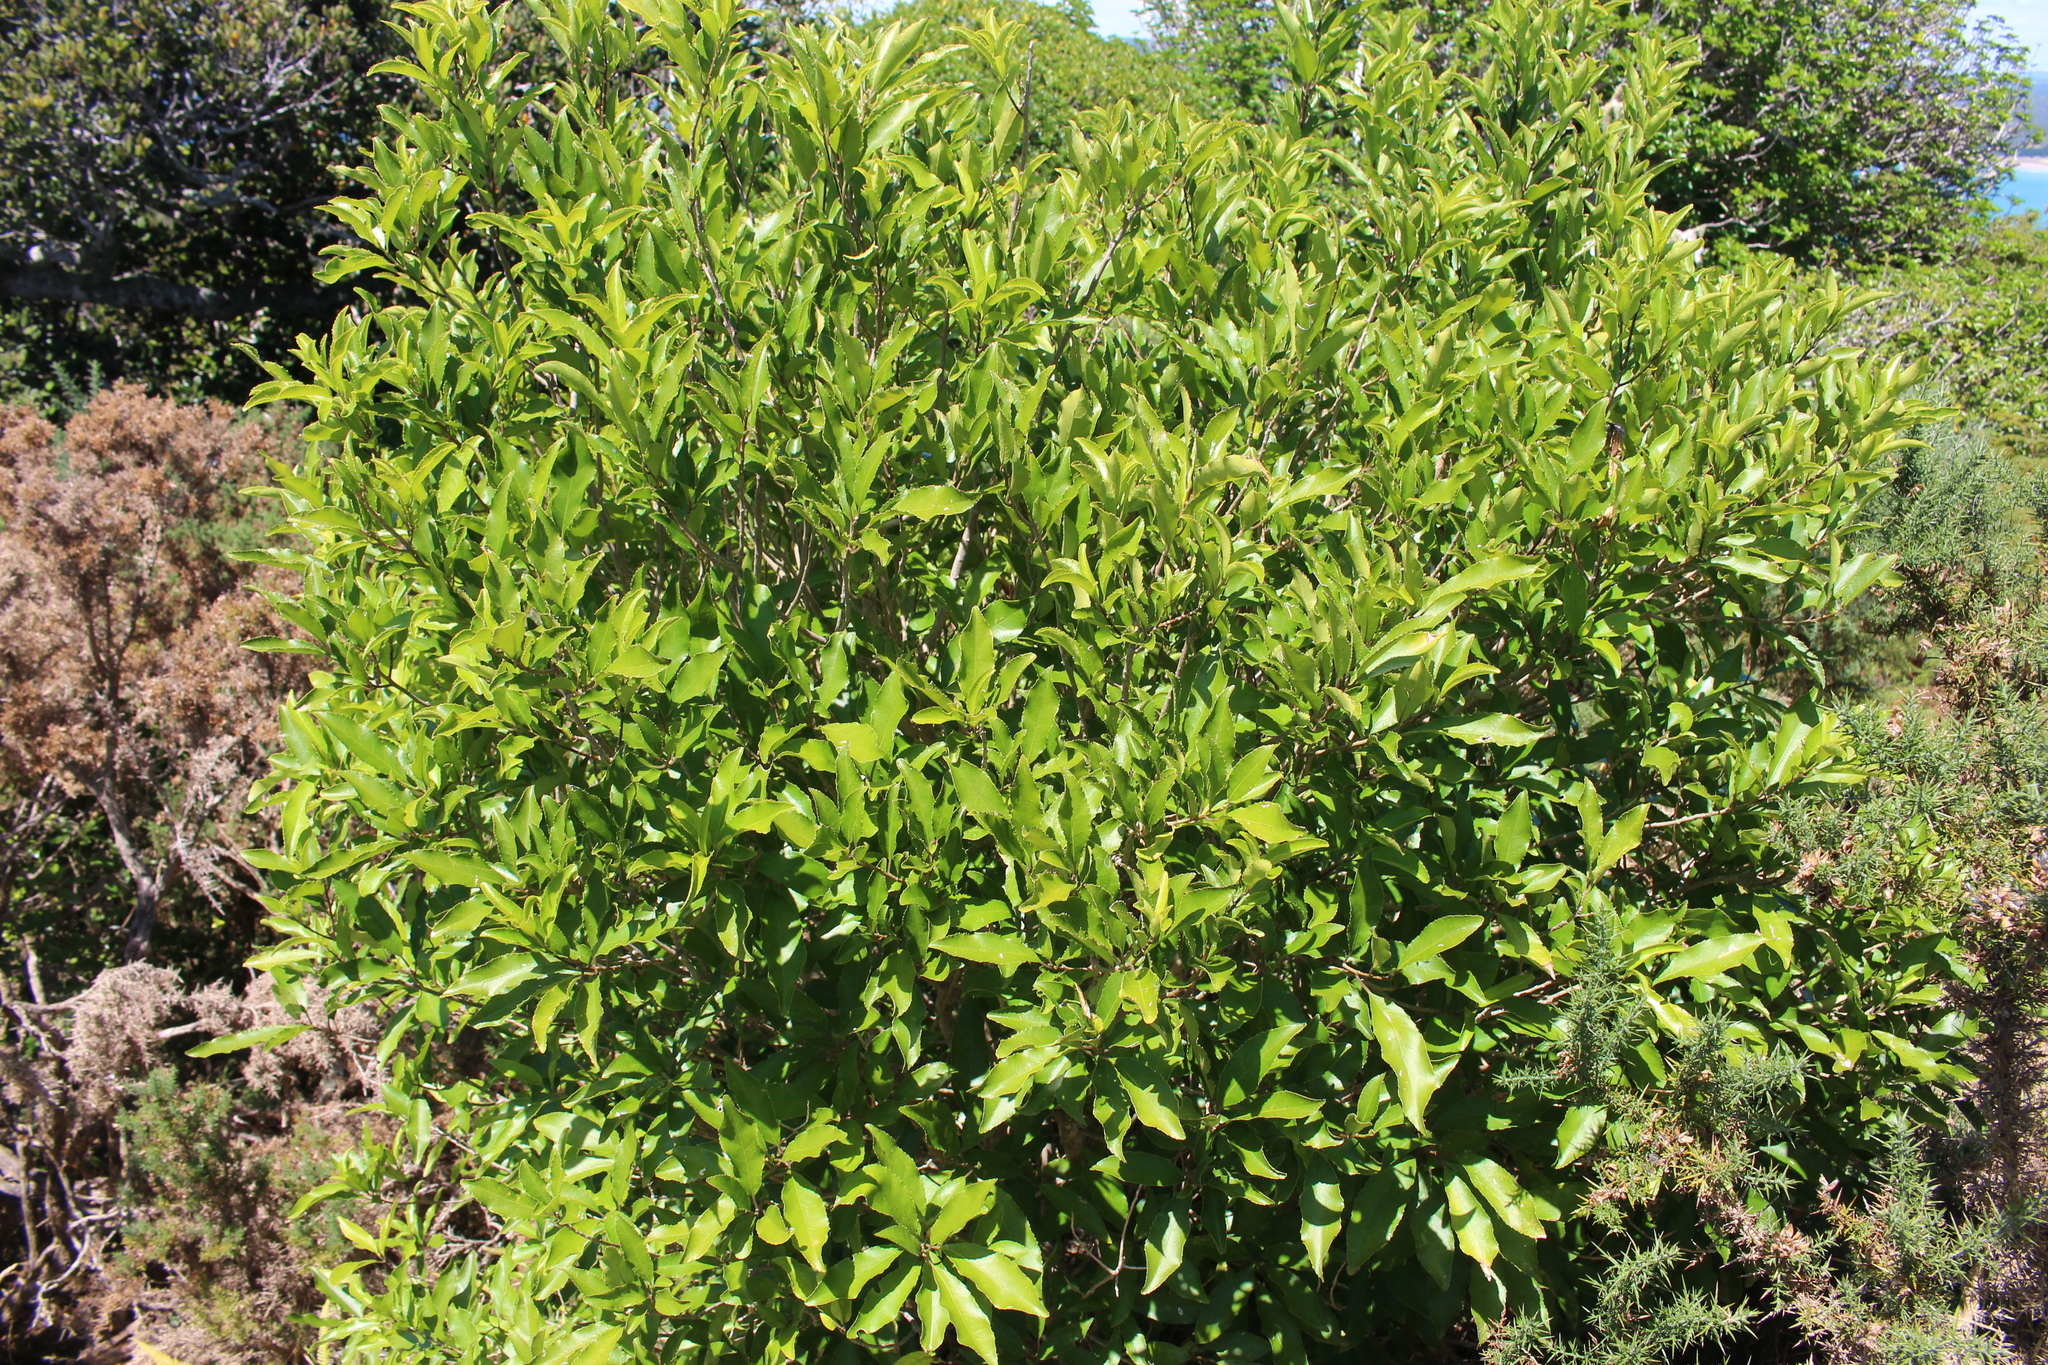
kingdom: Plantae
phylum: Tracheophyta
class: Magnoliopsida
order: Malpighiales
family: Violaceae
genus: Melicytus
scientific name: Melicytus ramiflorus
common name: Mahoe
